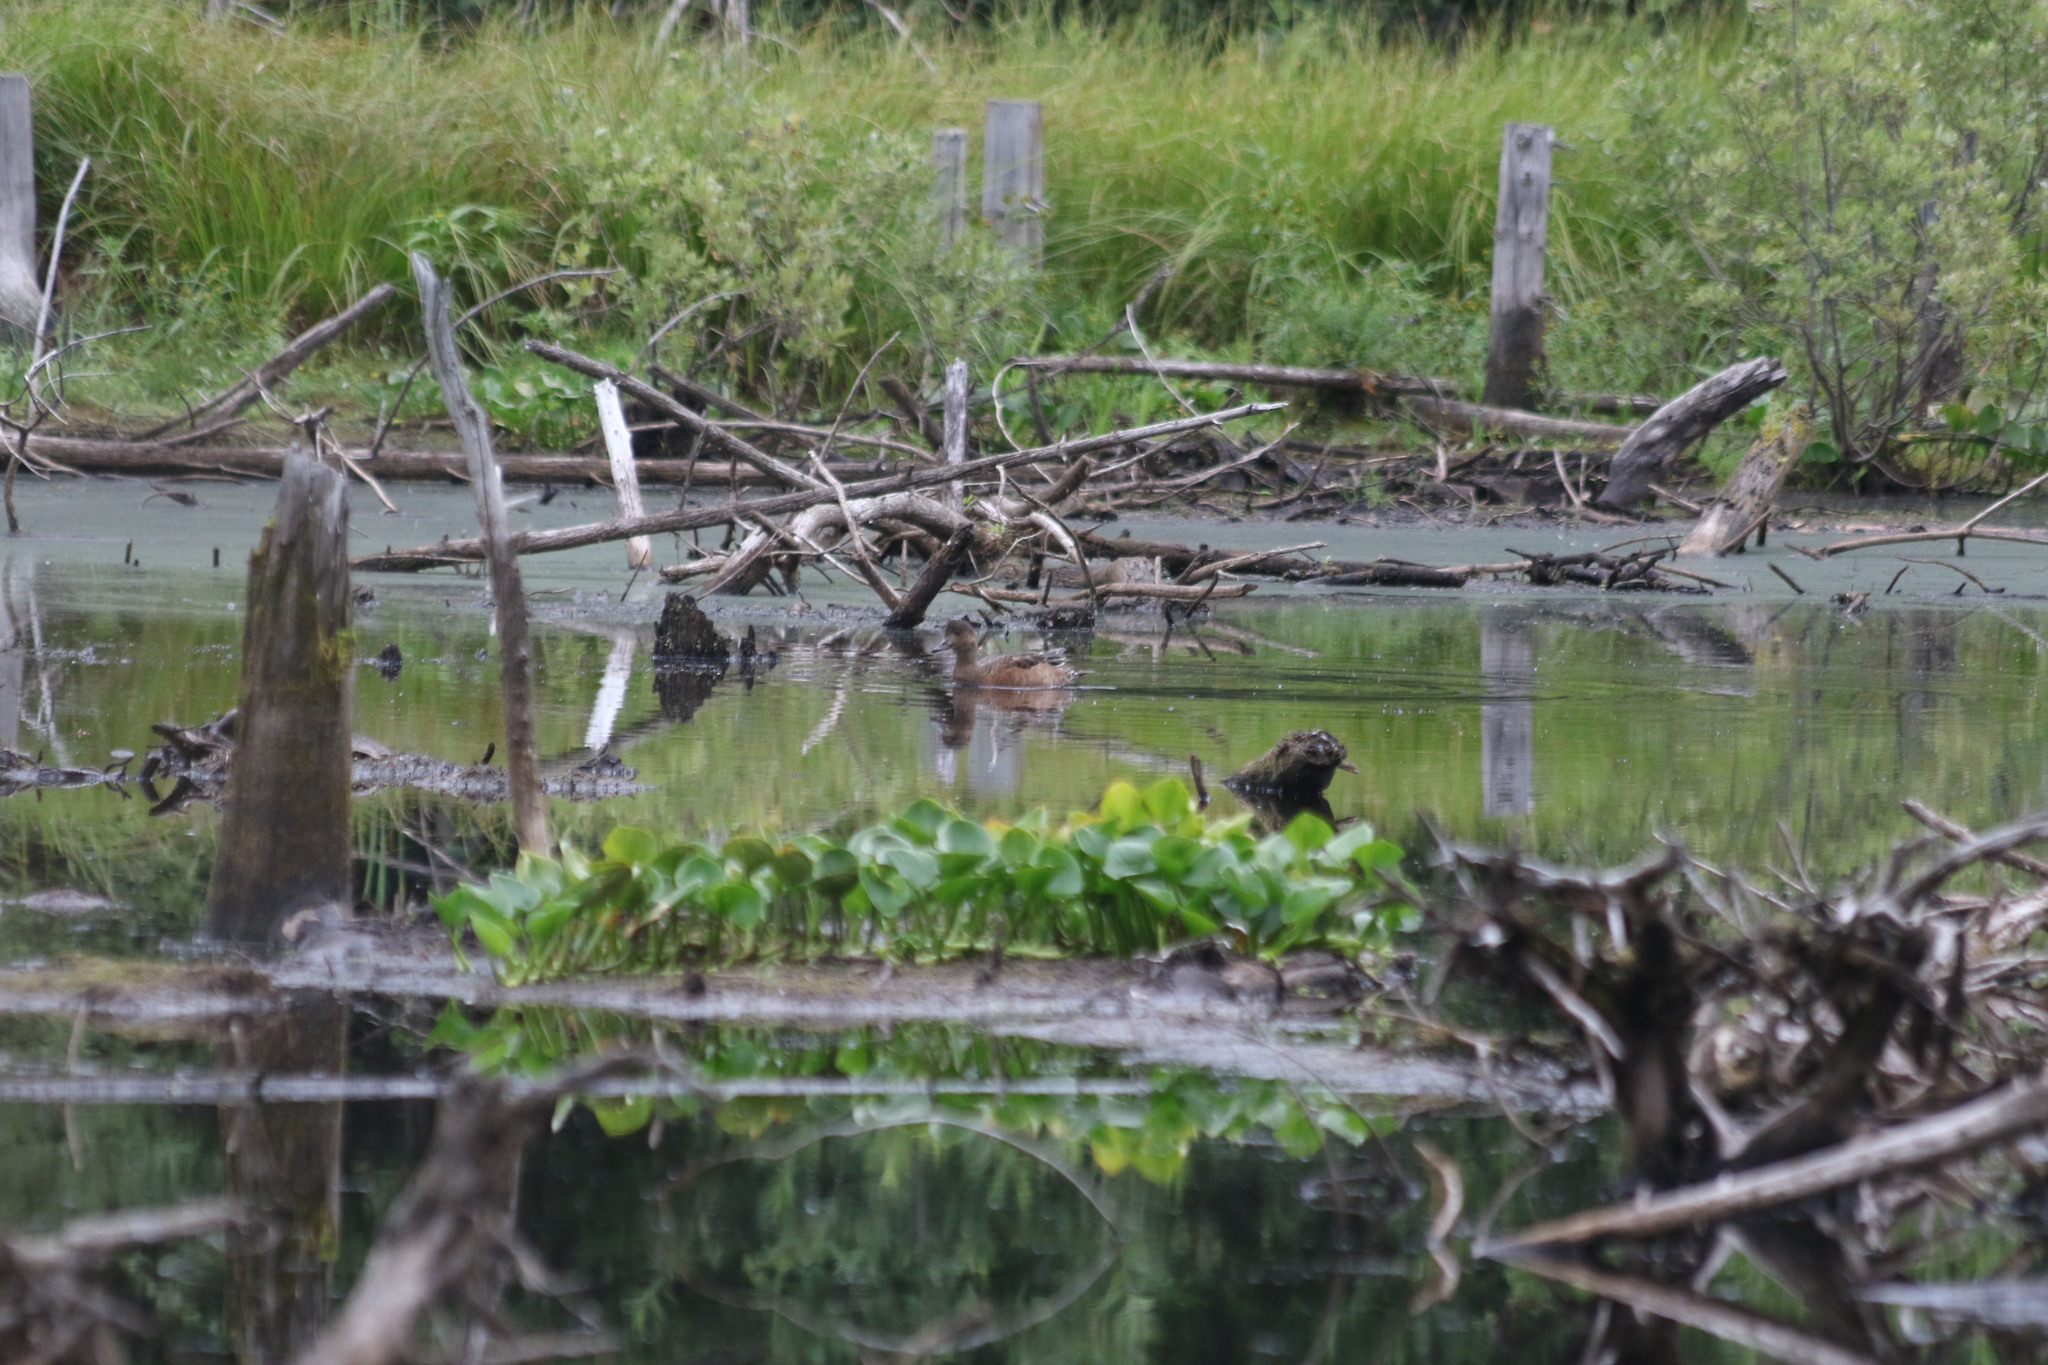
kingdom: Animalia
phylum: Chordata
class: Aves
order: Anseriformes
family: Anatidae
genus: Mareca
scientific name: Mareca penelope
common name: Eurasian wigeon
